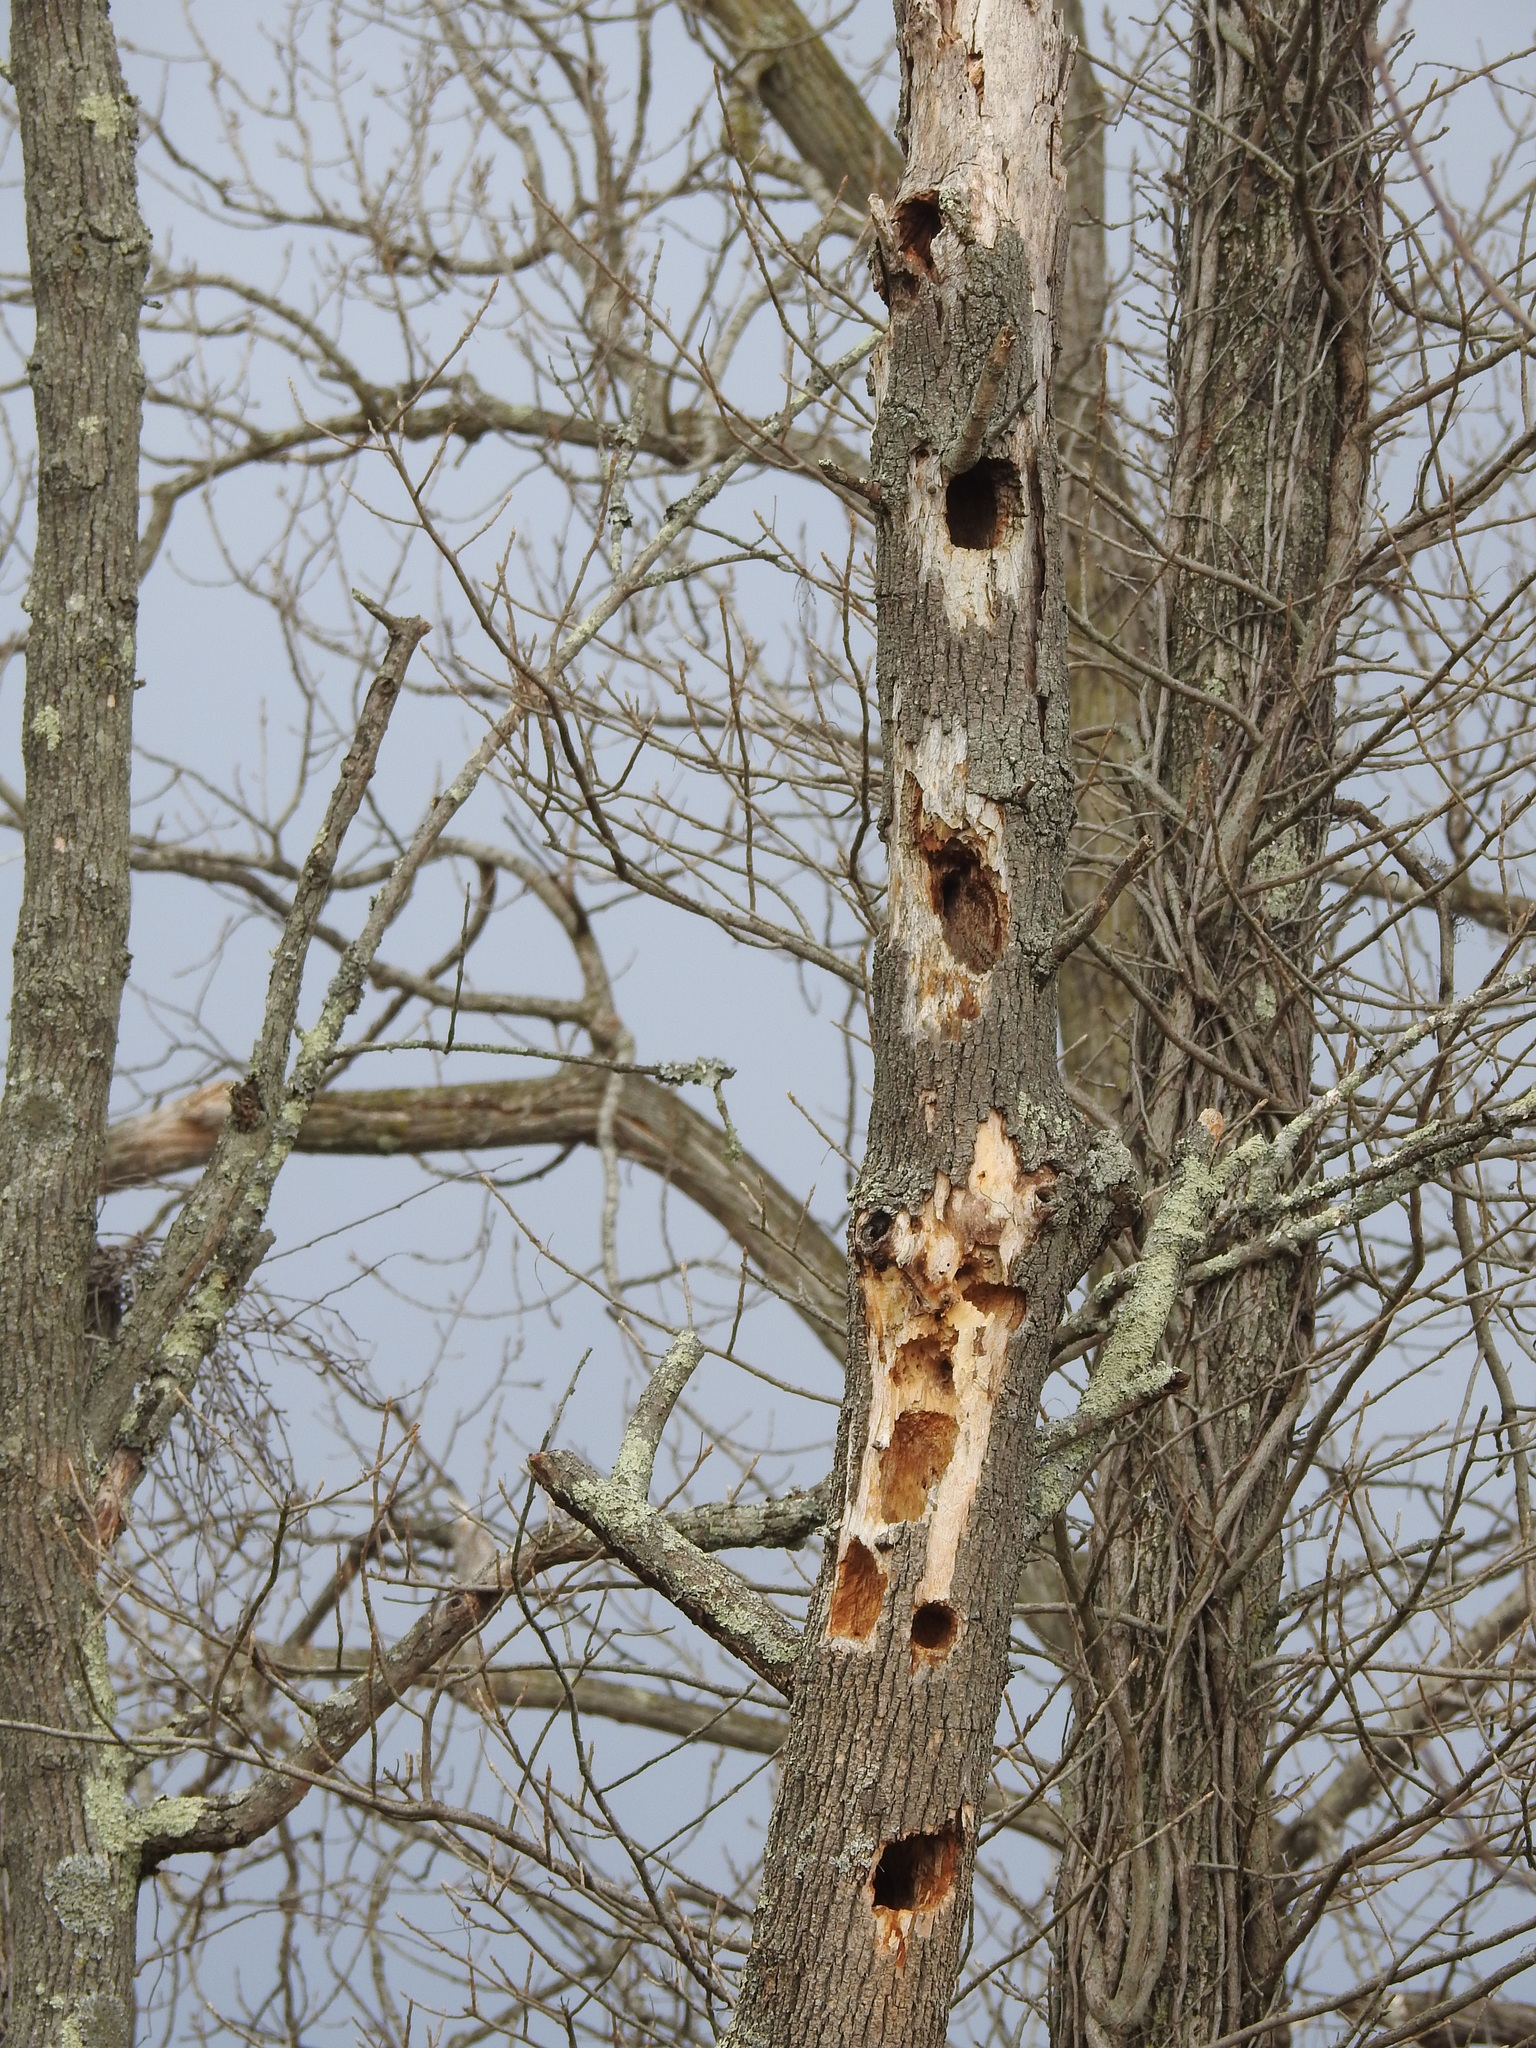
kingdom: Animalia
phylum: Chordata
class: Aves
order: Piciformes
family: Picidae
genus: Dryocopus
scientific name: Dryocopus pileatus
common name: Pileated woodpecker
